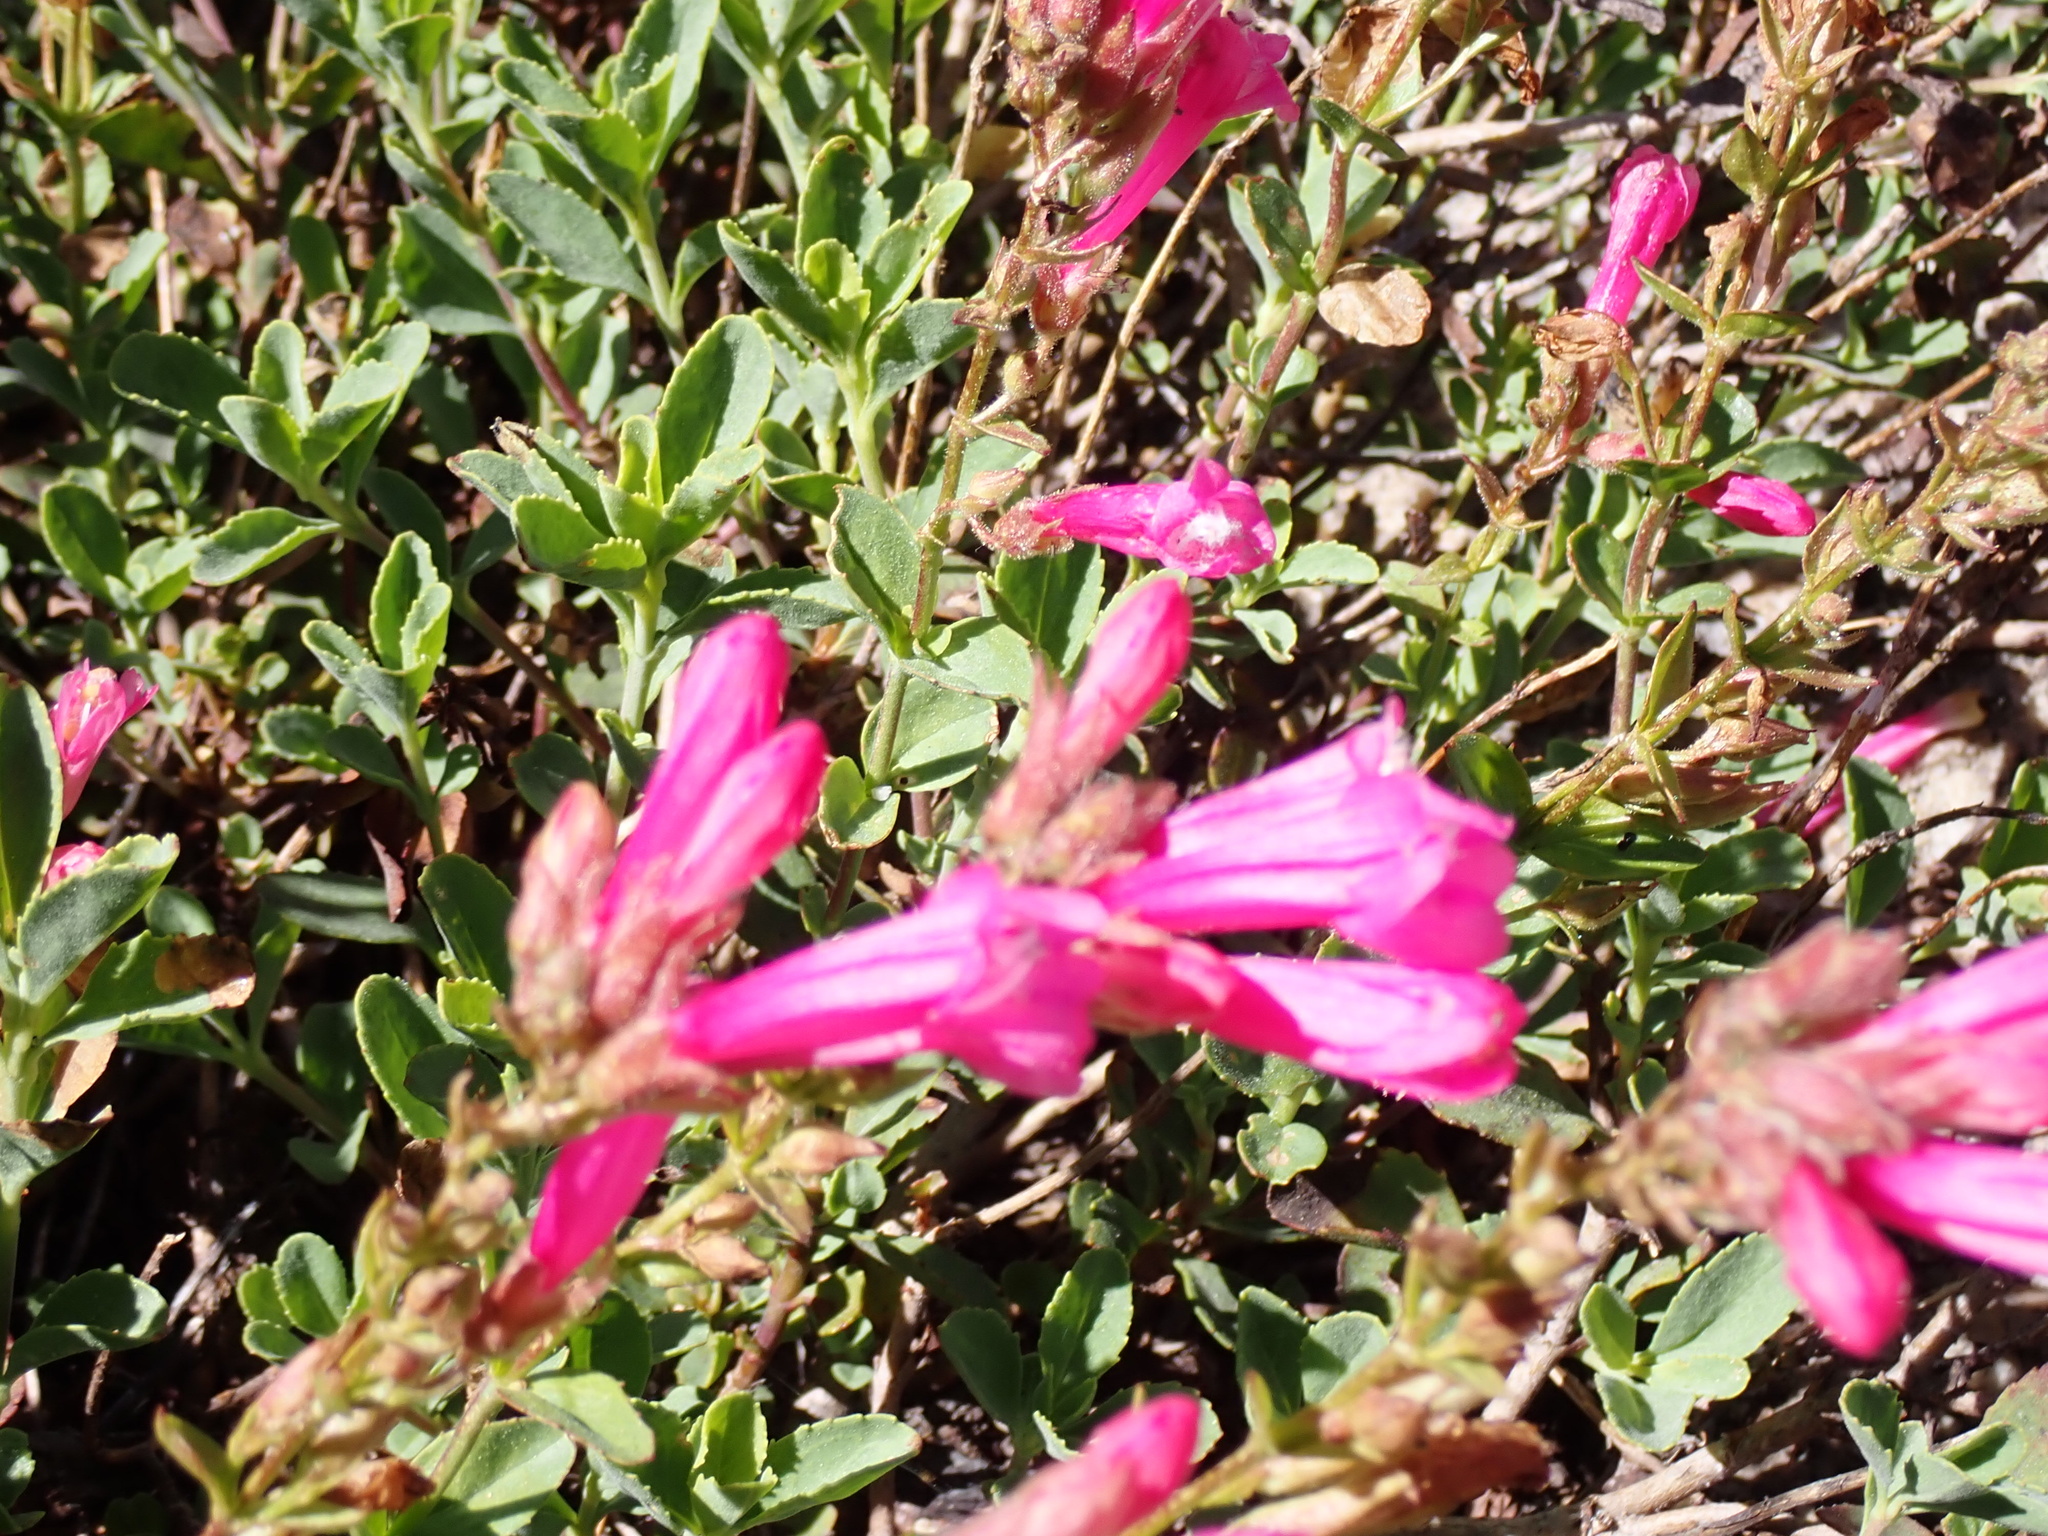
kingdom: Plantae
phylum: Tracheophyta
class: Magnoliopsida
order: Lamiales
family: Plantaginaceae
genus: Penstemon
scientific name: Penstemon newberryi
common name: Mountain-pride
